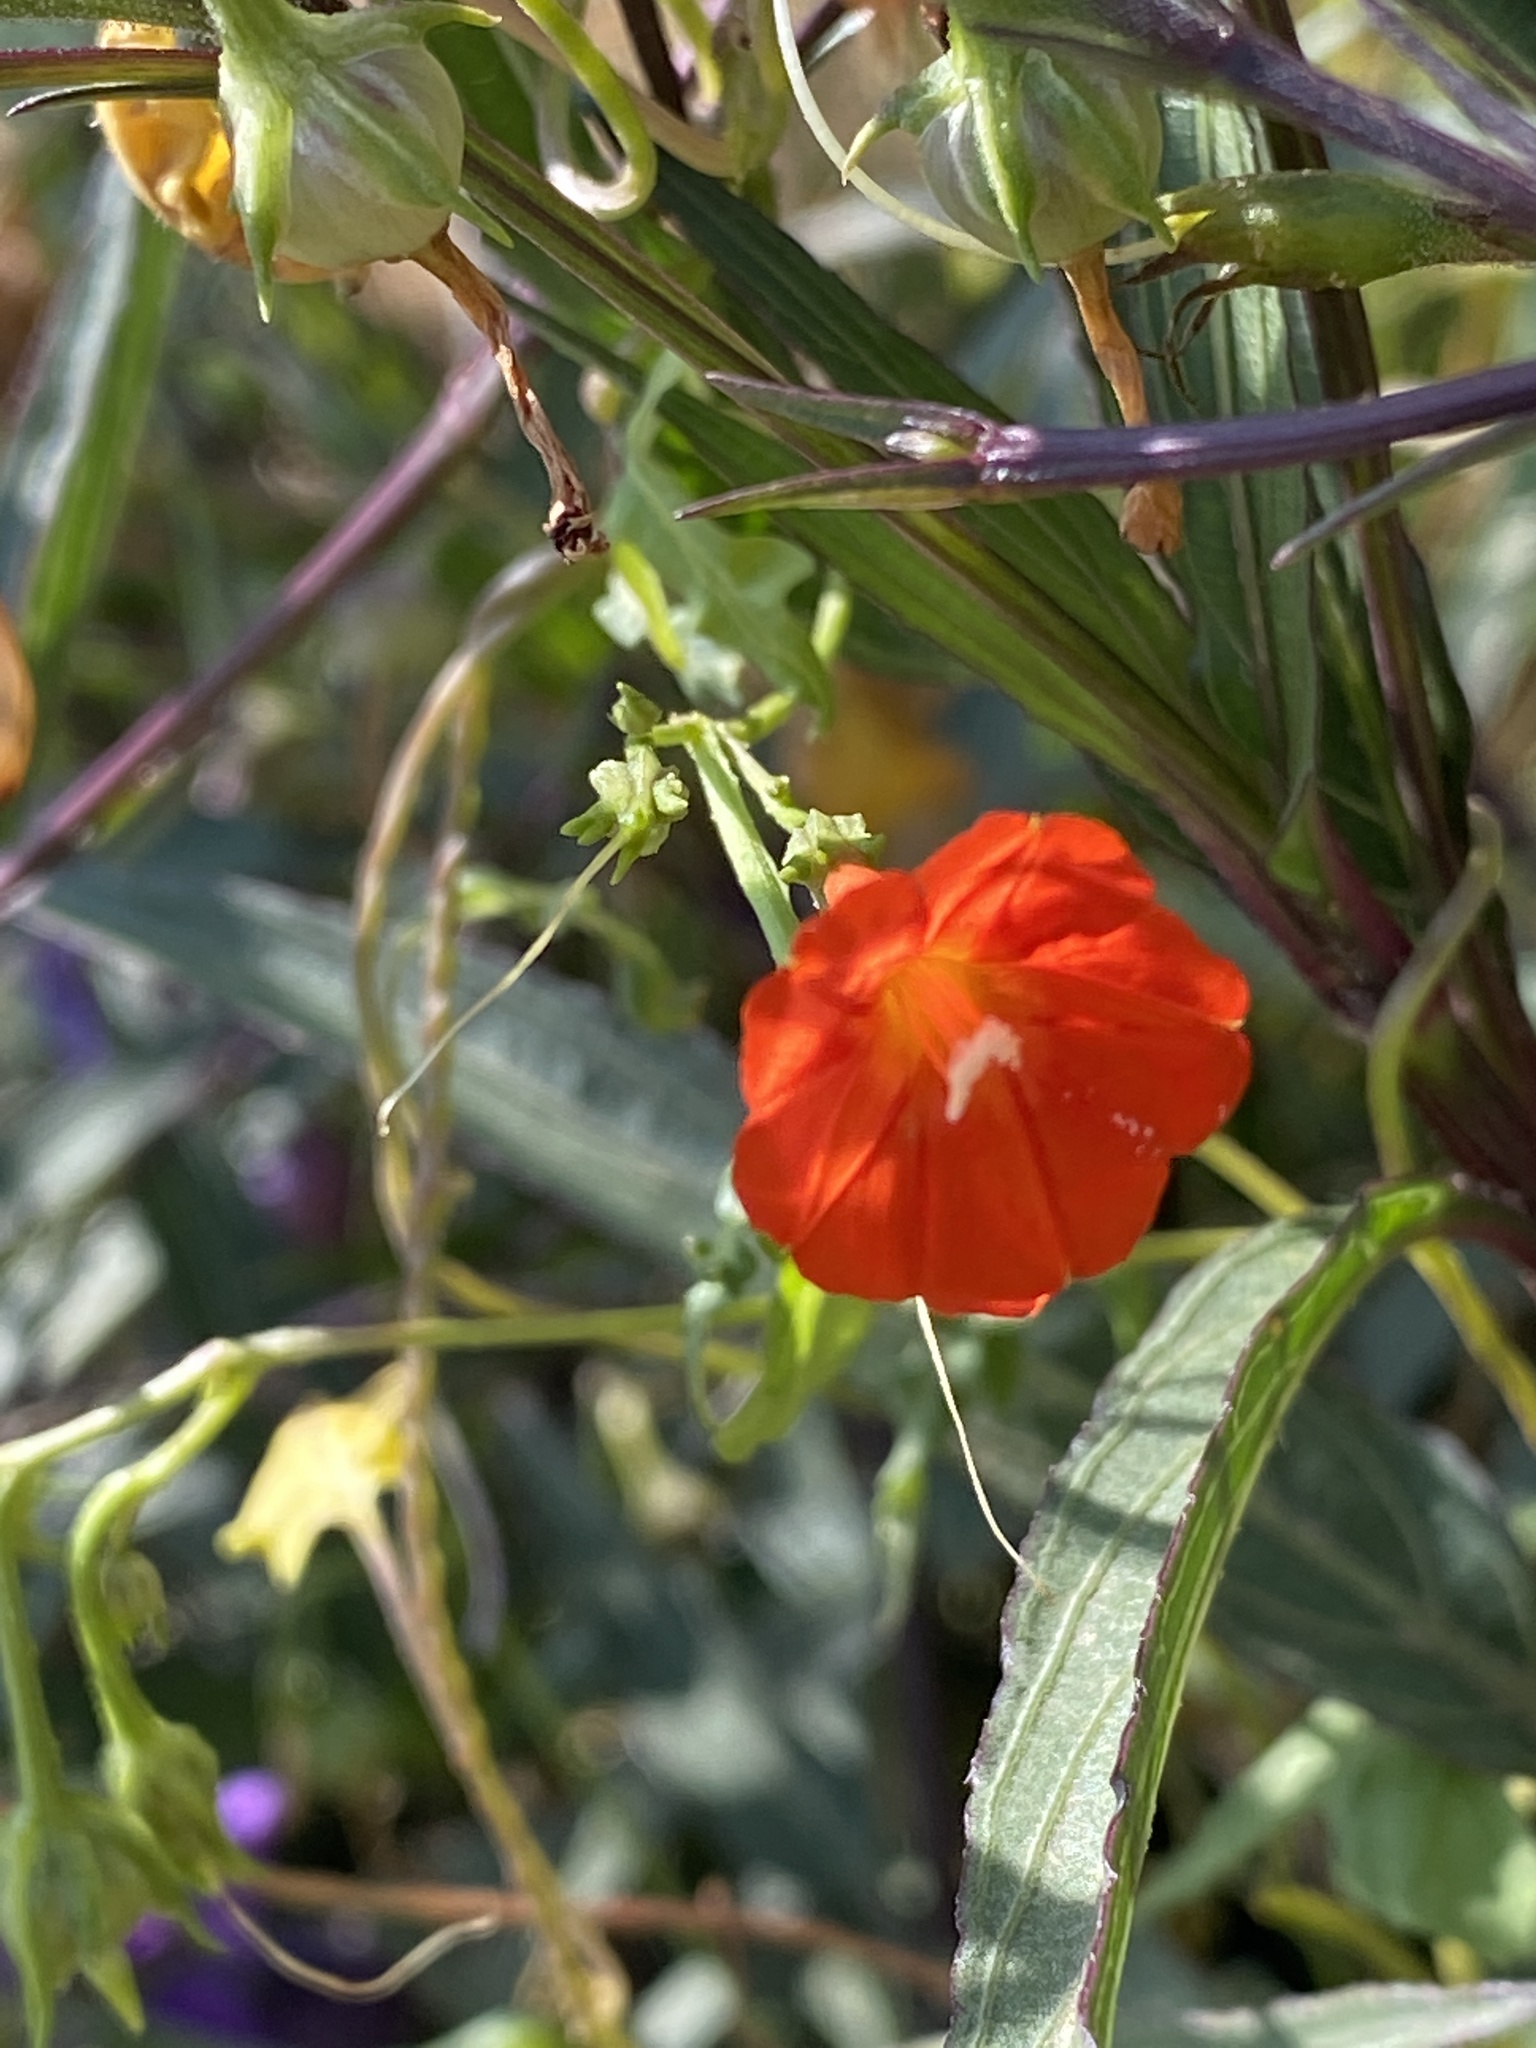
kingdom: Plantae
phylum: Tracheophyta
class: Magnoliopsida
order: Solanales
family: Convolvulaceae
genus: Ipomoea
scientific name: Ipomoea cristulata
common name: Trans-pecos morning-glory
